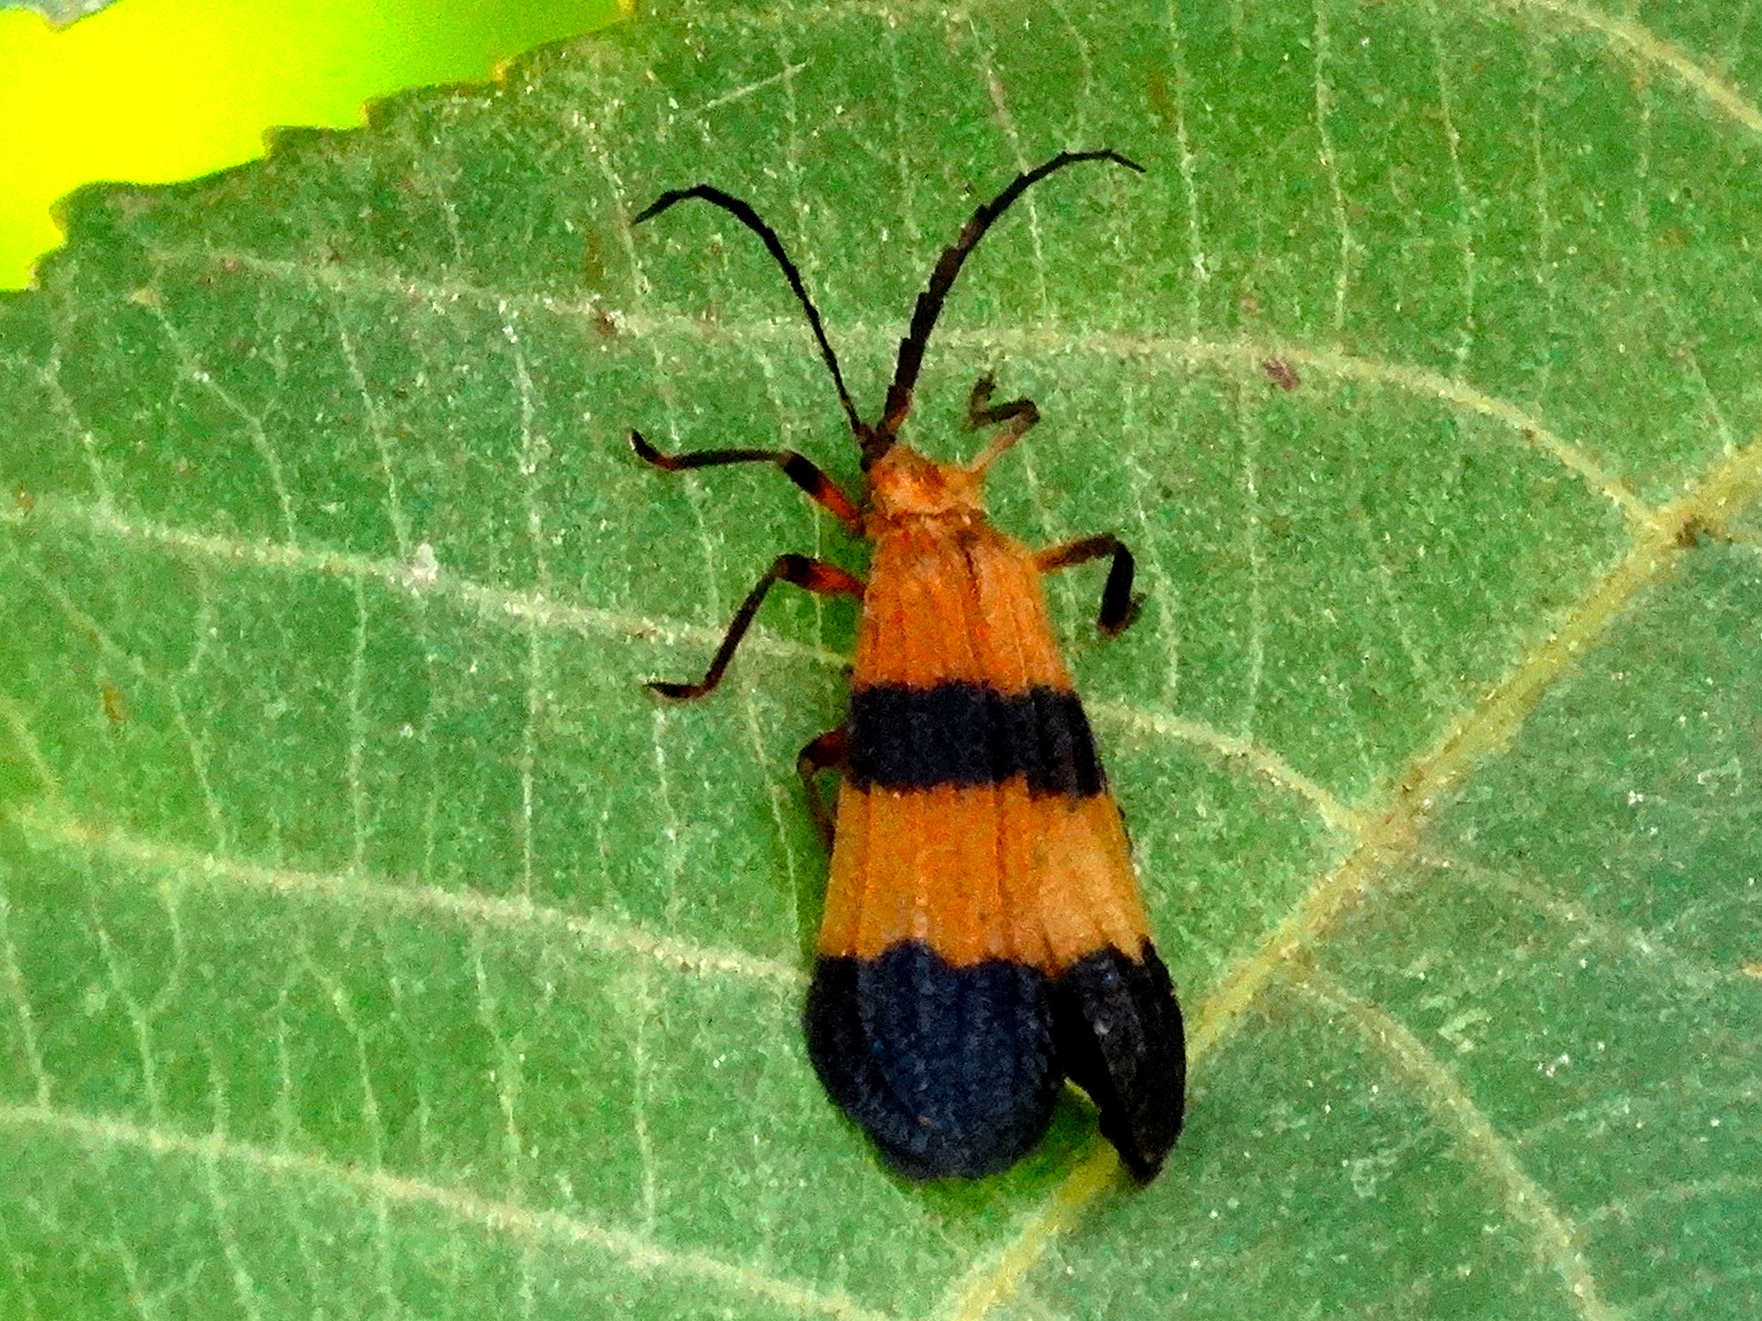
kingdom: Animalia
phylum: Arthropoda
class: Insecta
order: Coleoptera
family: Lycidae
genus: Calopteron
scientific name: Calopteron
